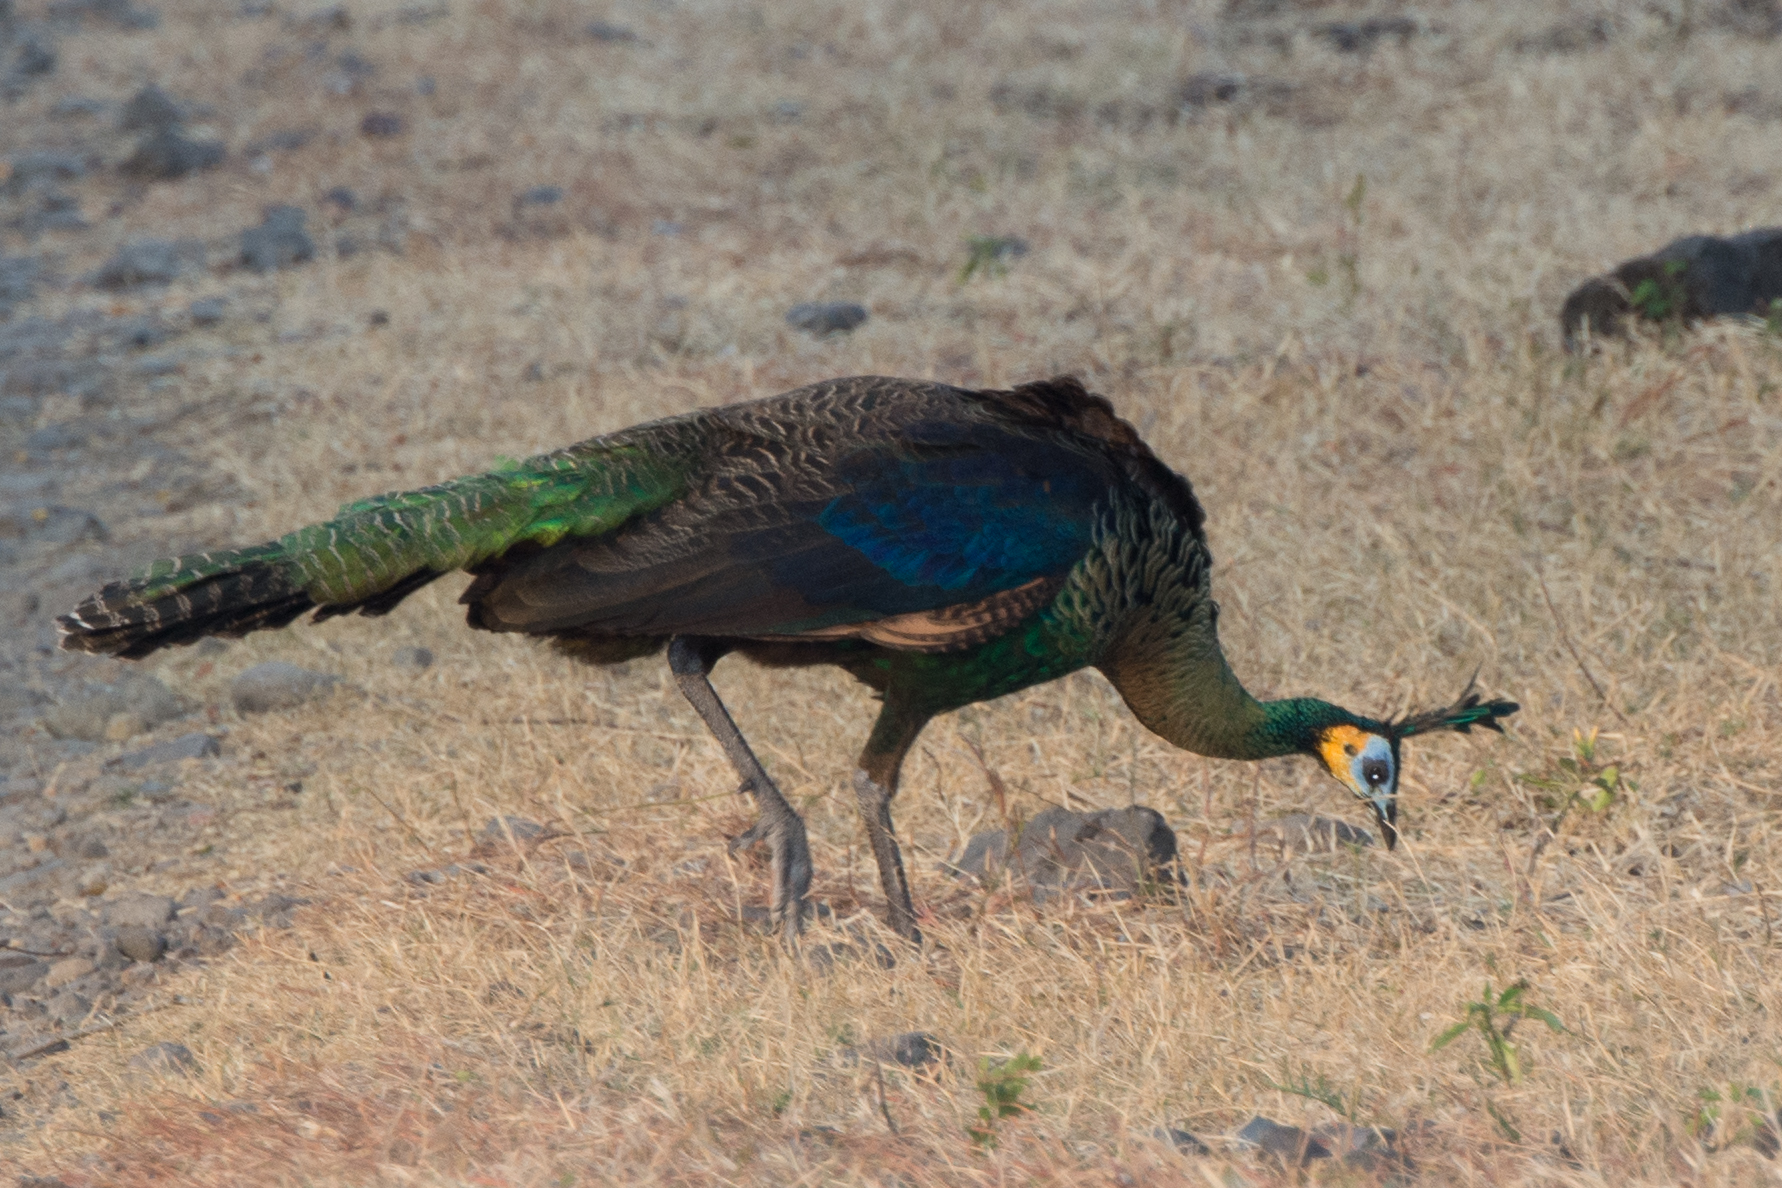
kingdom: Animalia
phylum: Chordata
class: Aves
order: Galliformes
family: Phasianidae
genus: Pavo
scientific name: Pavo muticus
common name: Green peafowl
